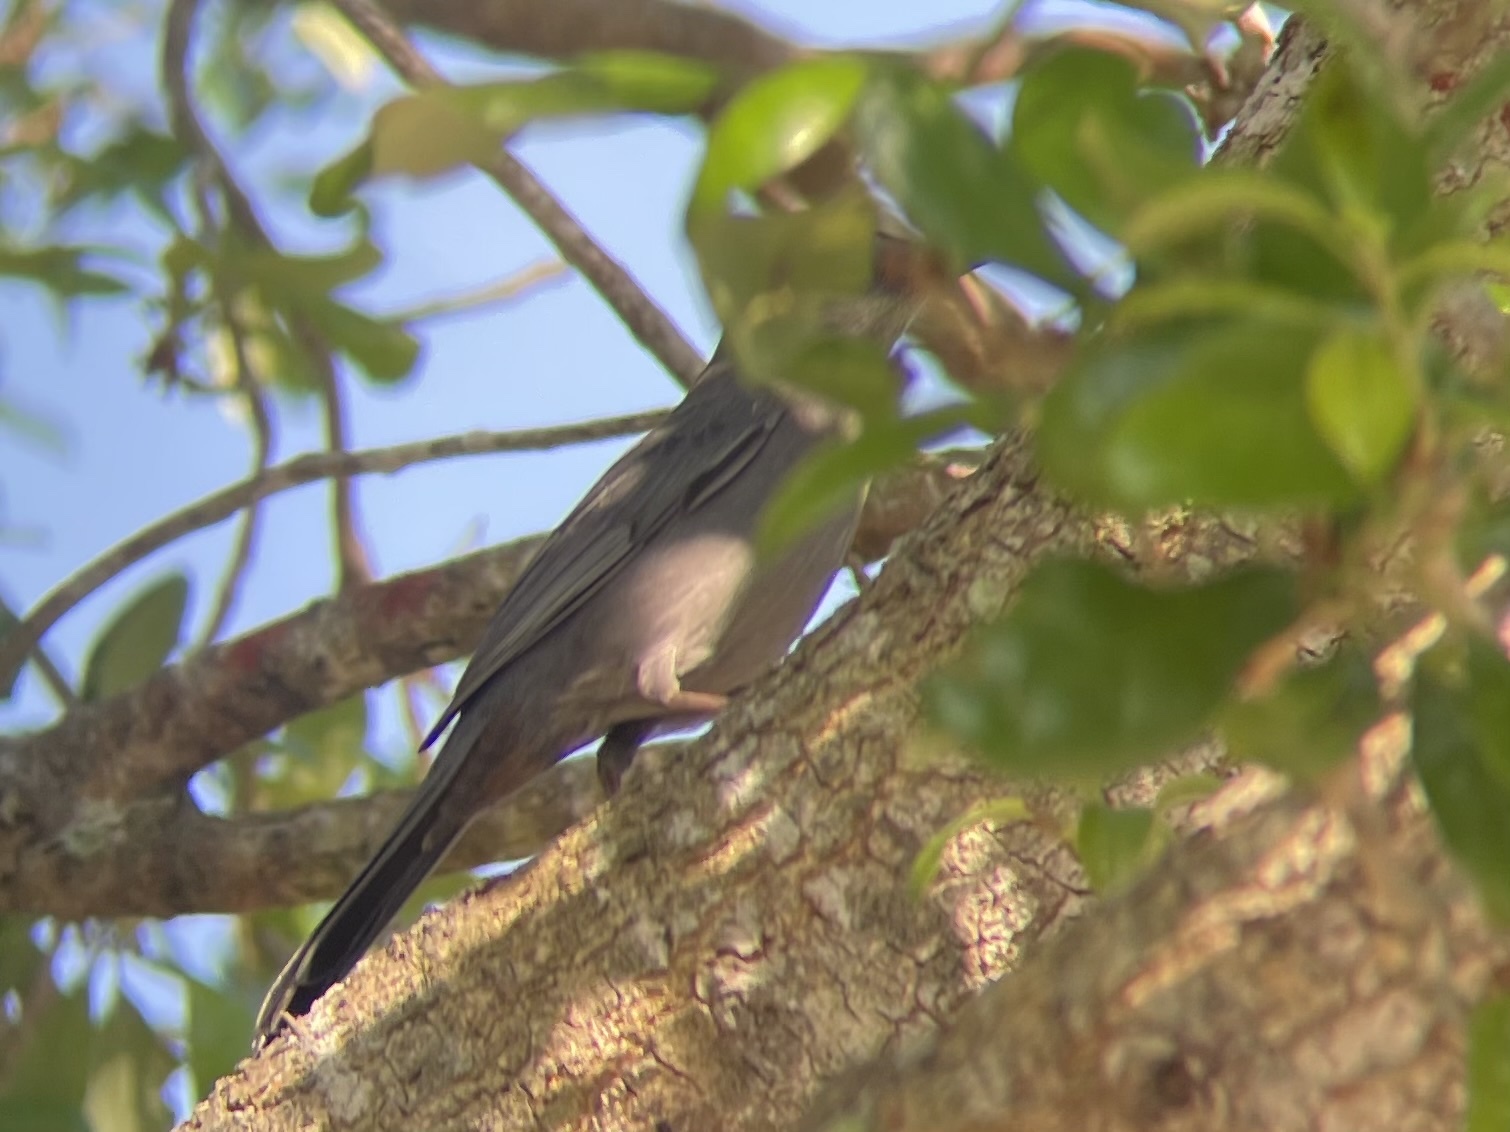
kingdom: Animalia
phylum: Chordata
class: Aves
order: Passeriformes
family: Mimidae
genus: Dumetella
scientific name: Dumetella carolinensis
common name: Gray catbird
